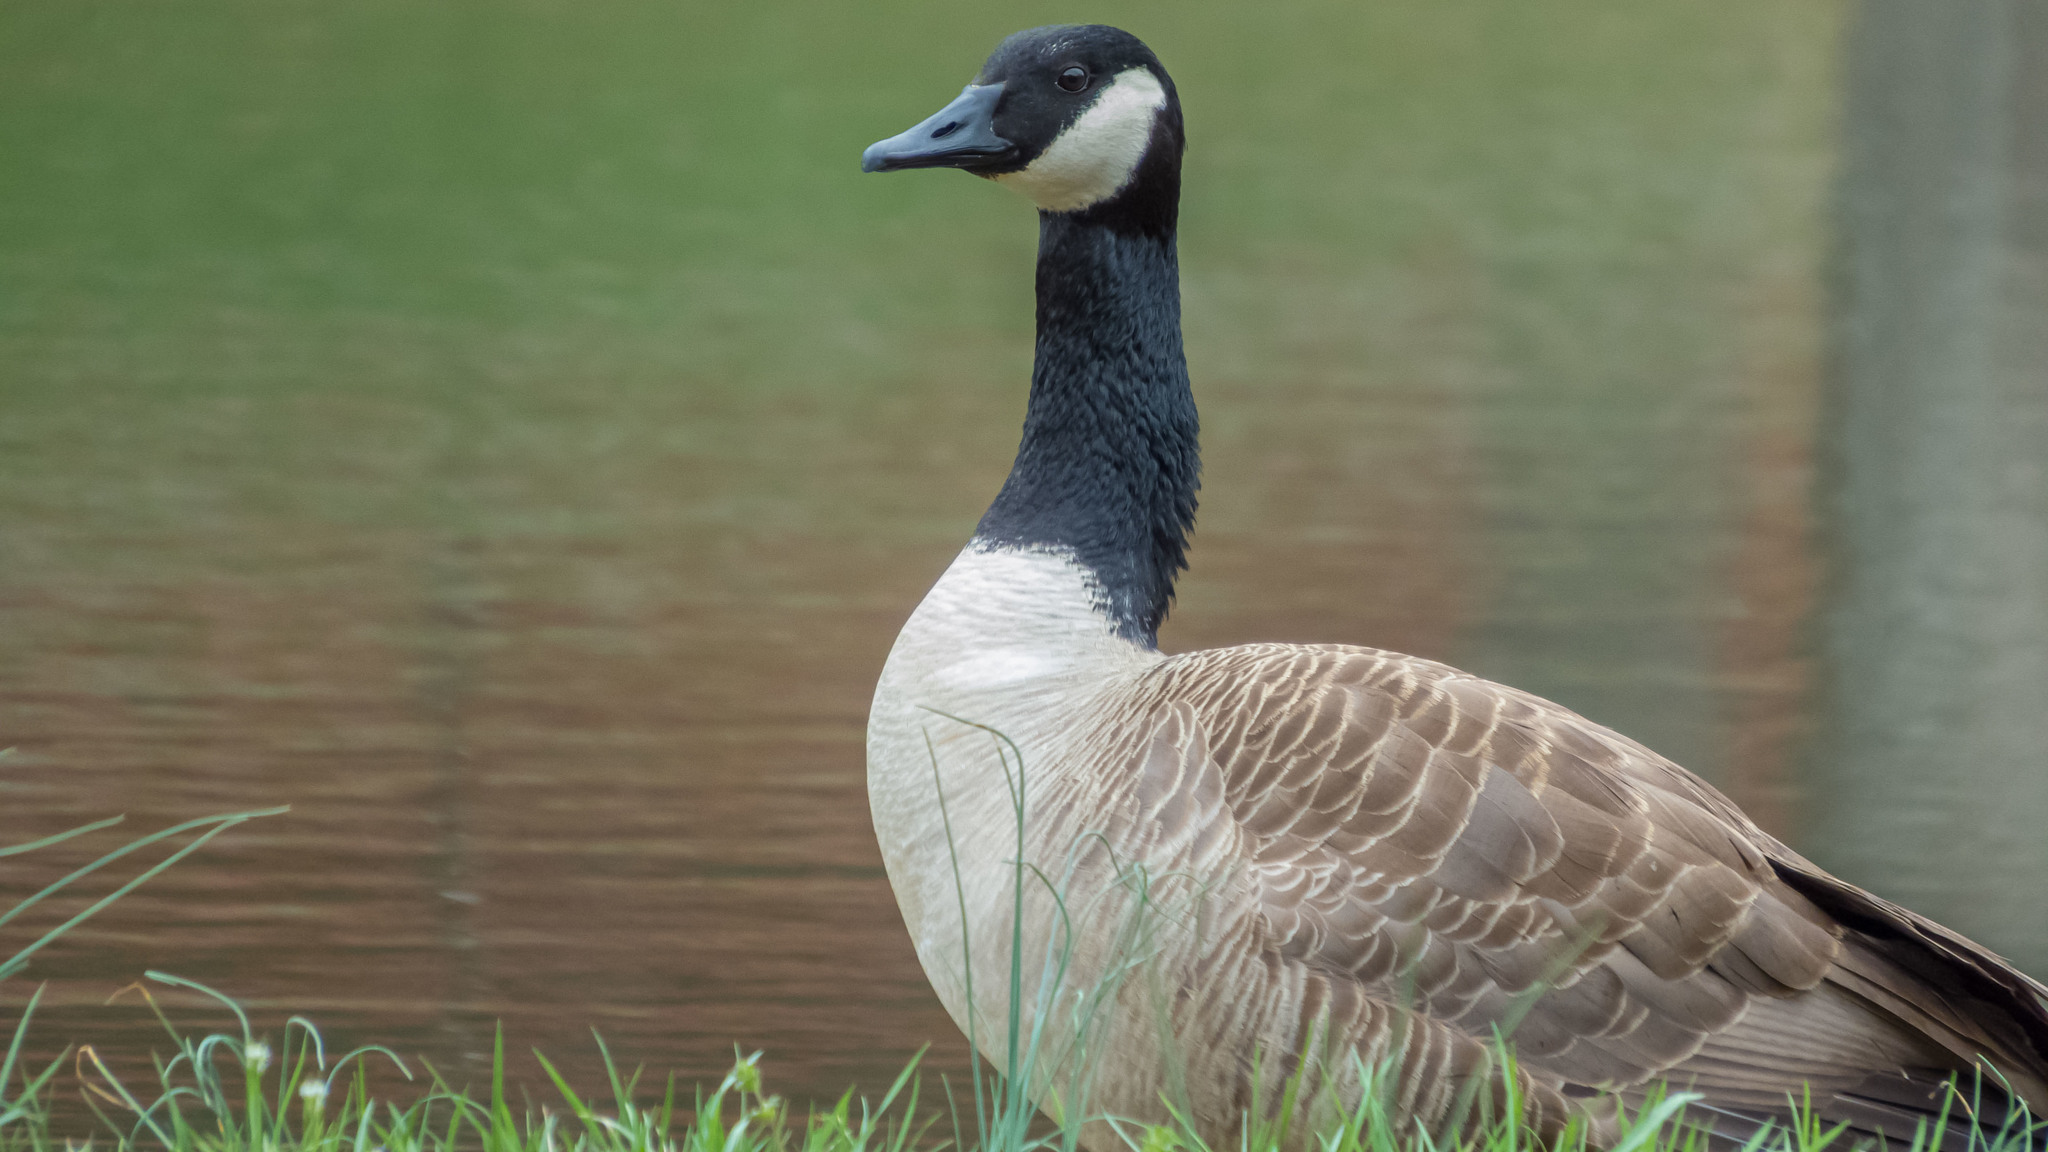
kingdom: Animalia
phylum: Chordata
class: Aves
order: Anseriformes
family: Anatidae
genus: Branta
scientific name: Branta canadensis
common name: Canada goose
